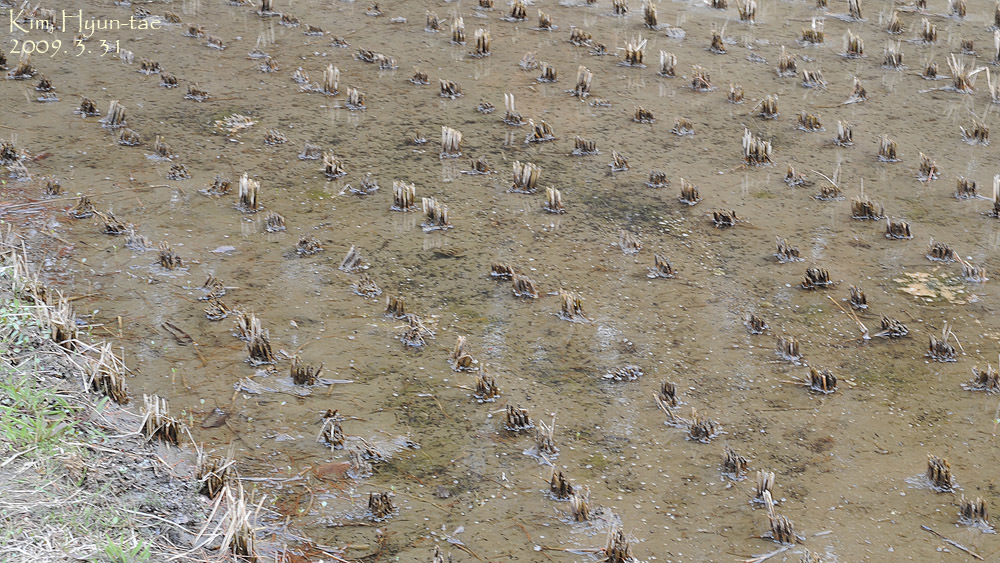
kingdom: Animalia
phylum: Chordata
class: Amphibia
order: Anura
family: Ranidae
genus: Rana
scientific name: Rana uenoi
